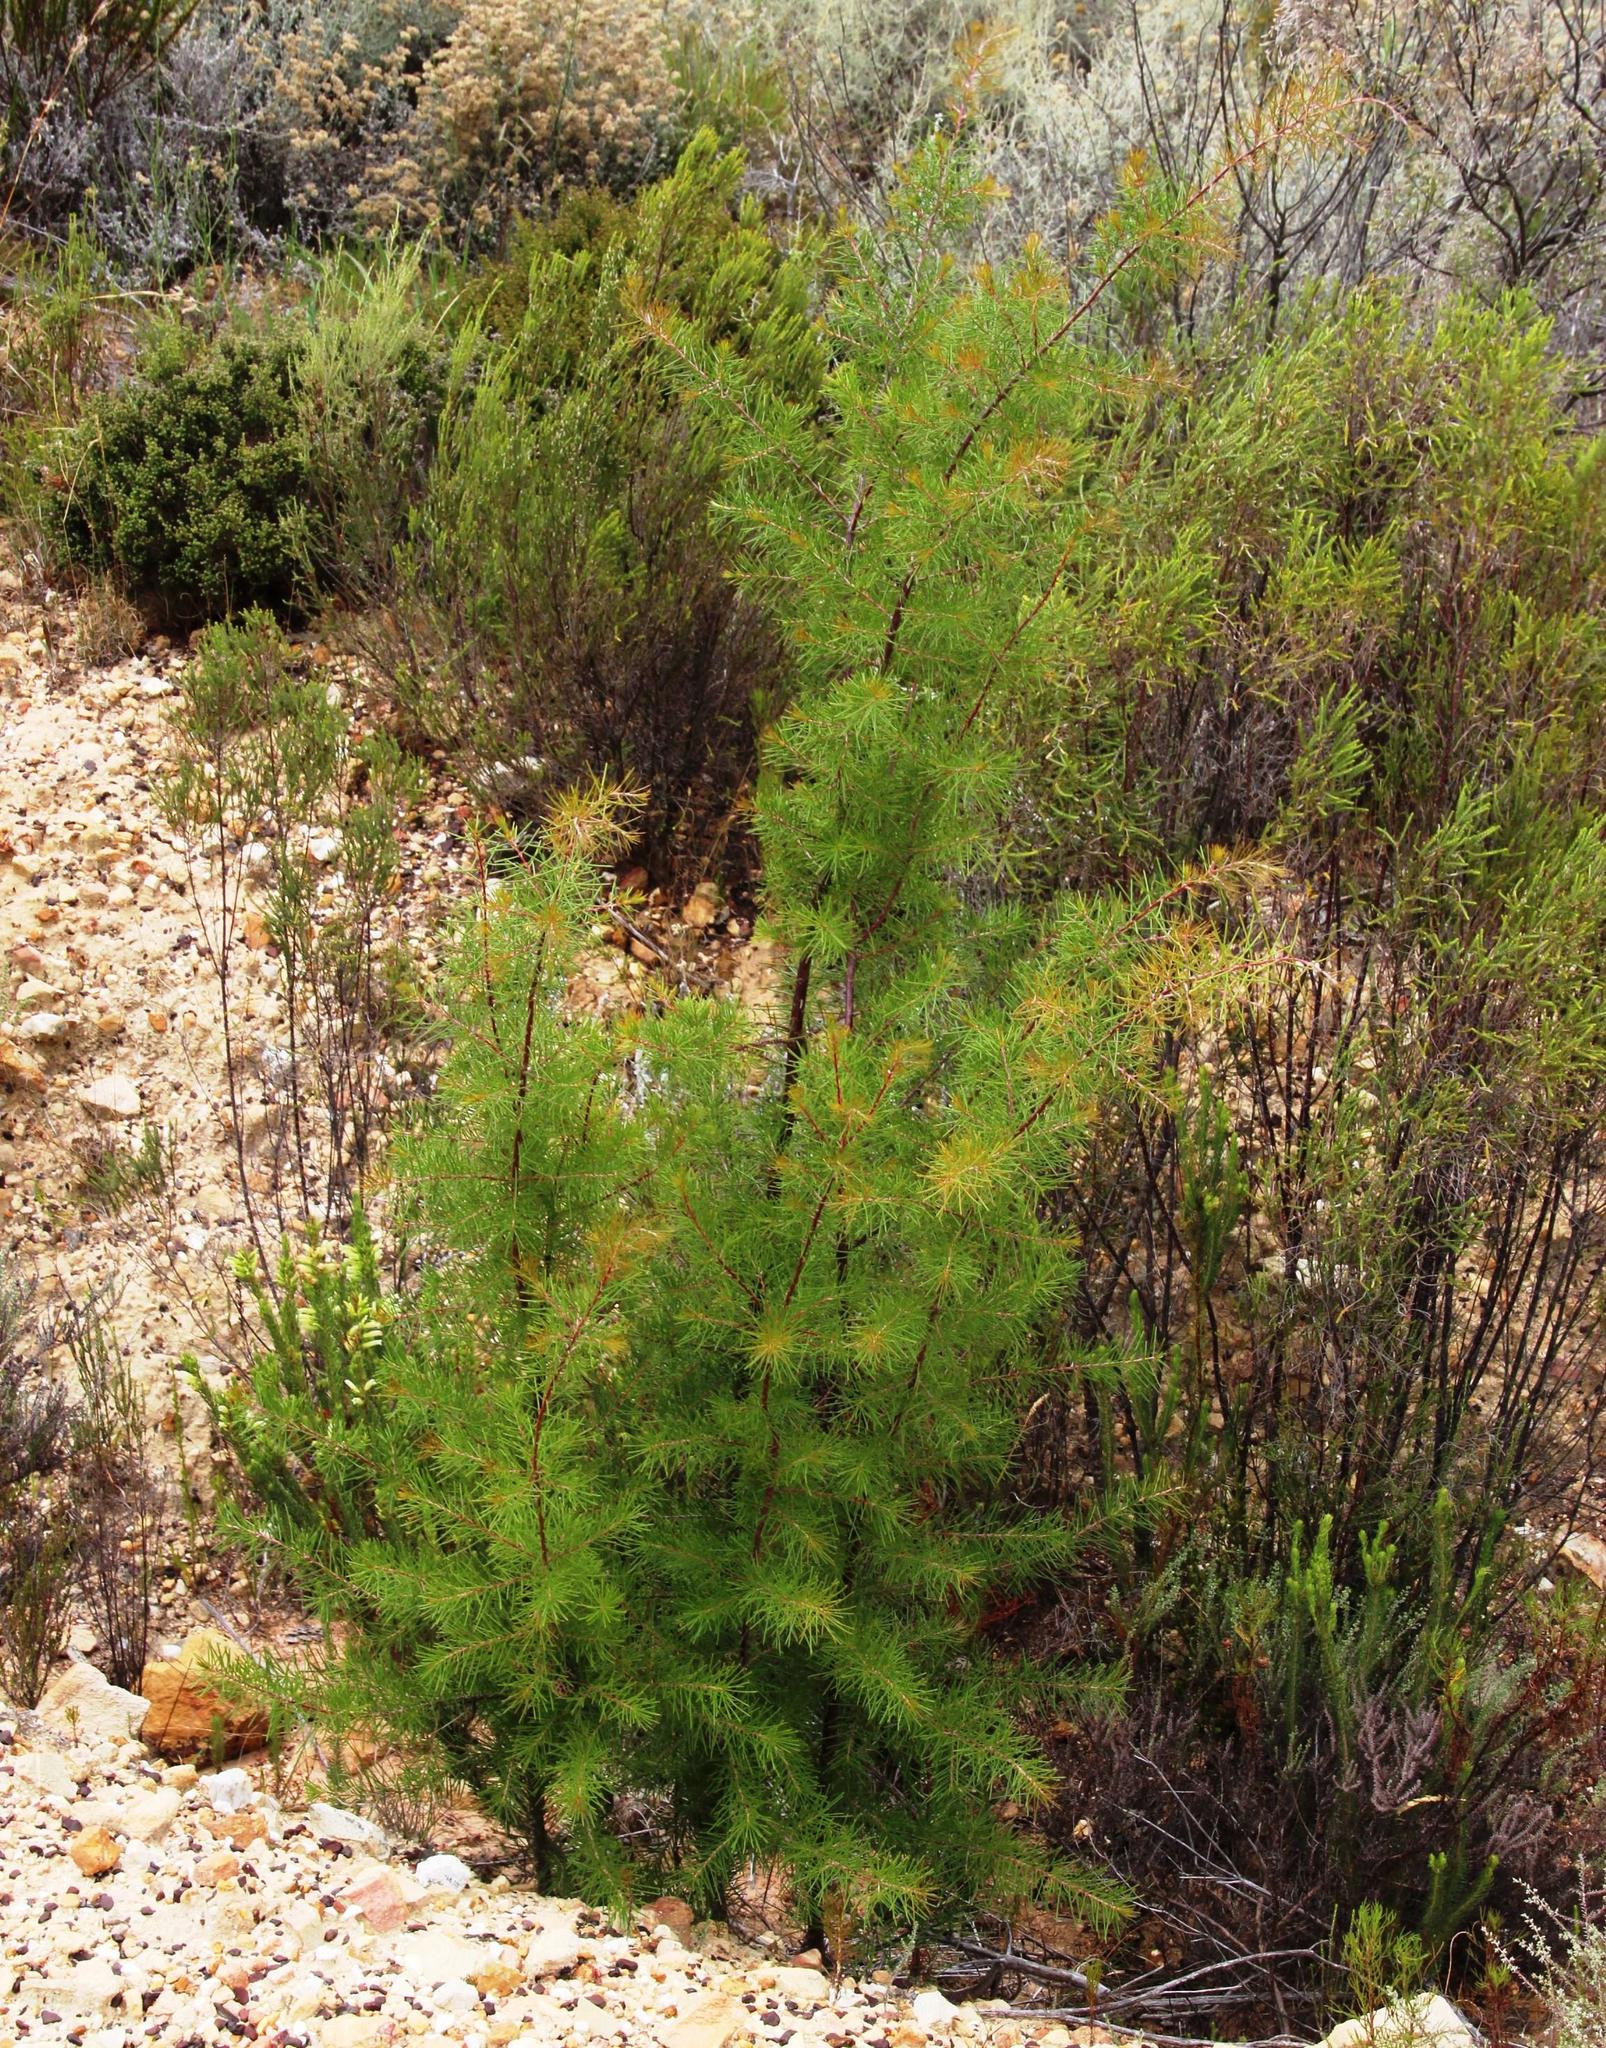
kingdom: Plantae
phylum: Tracheophyta
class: Magnoliopsida
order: Proteales
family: Proteaceae
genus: Hakea
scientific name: Hakea sericea
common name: Needle bush
